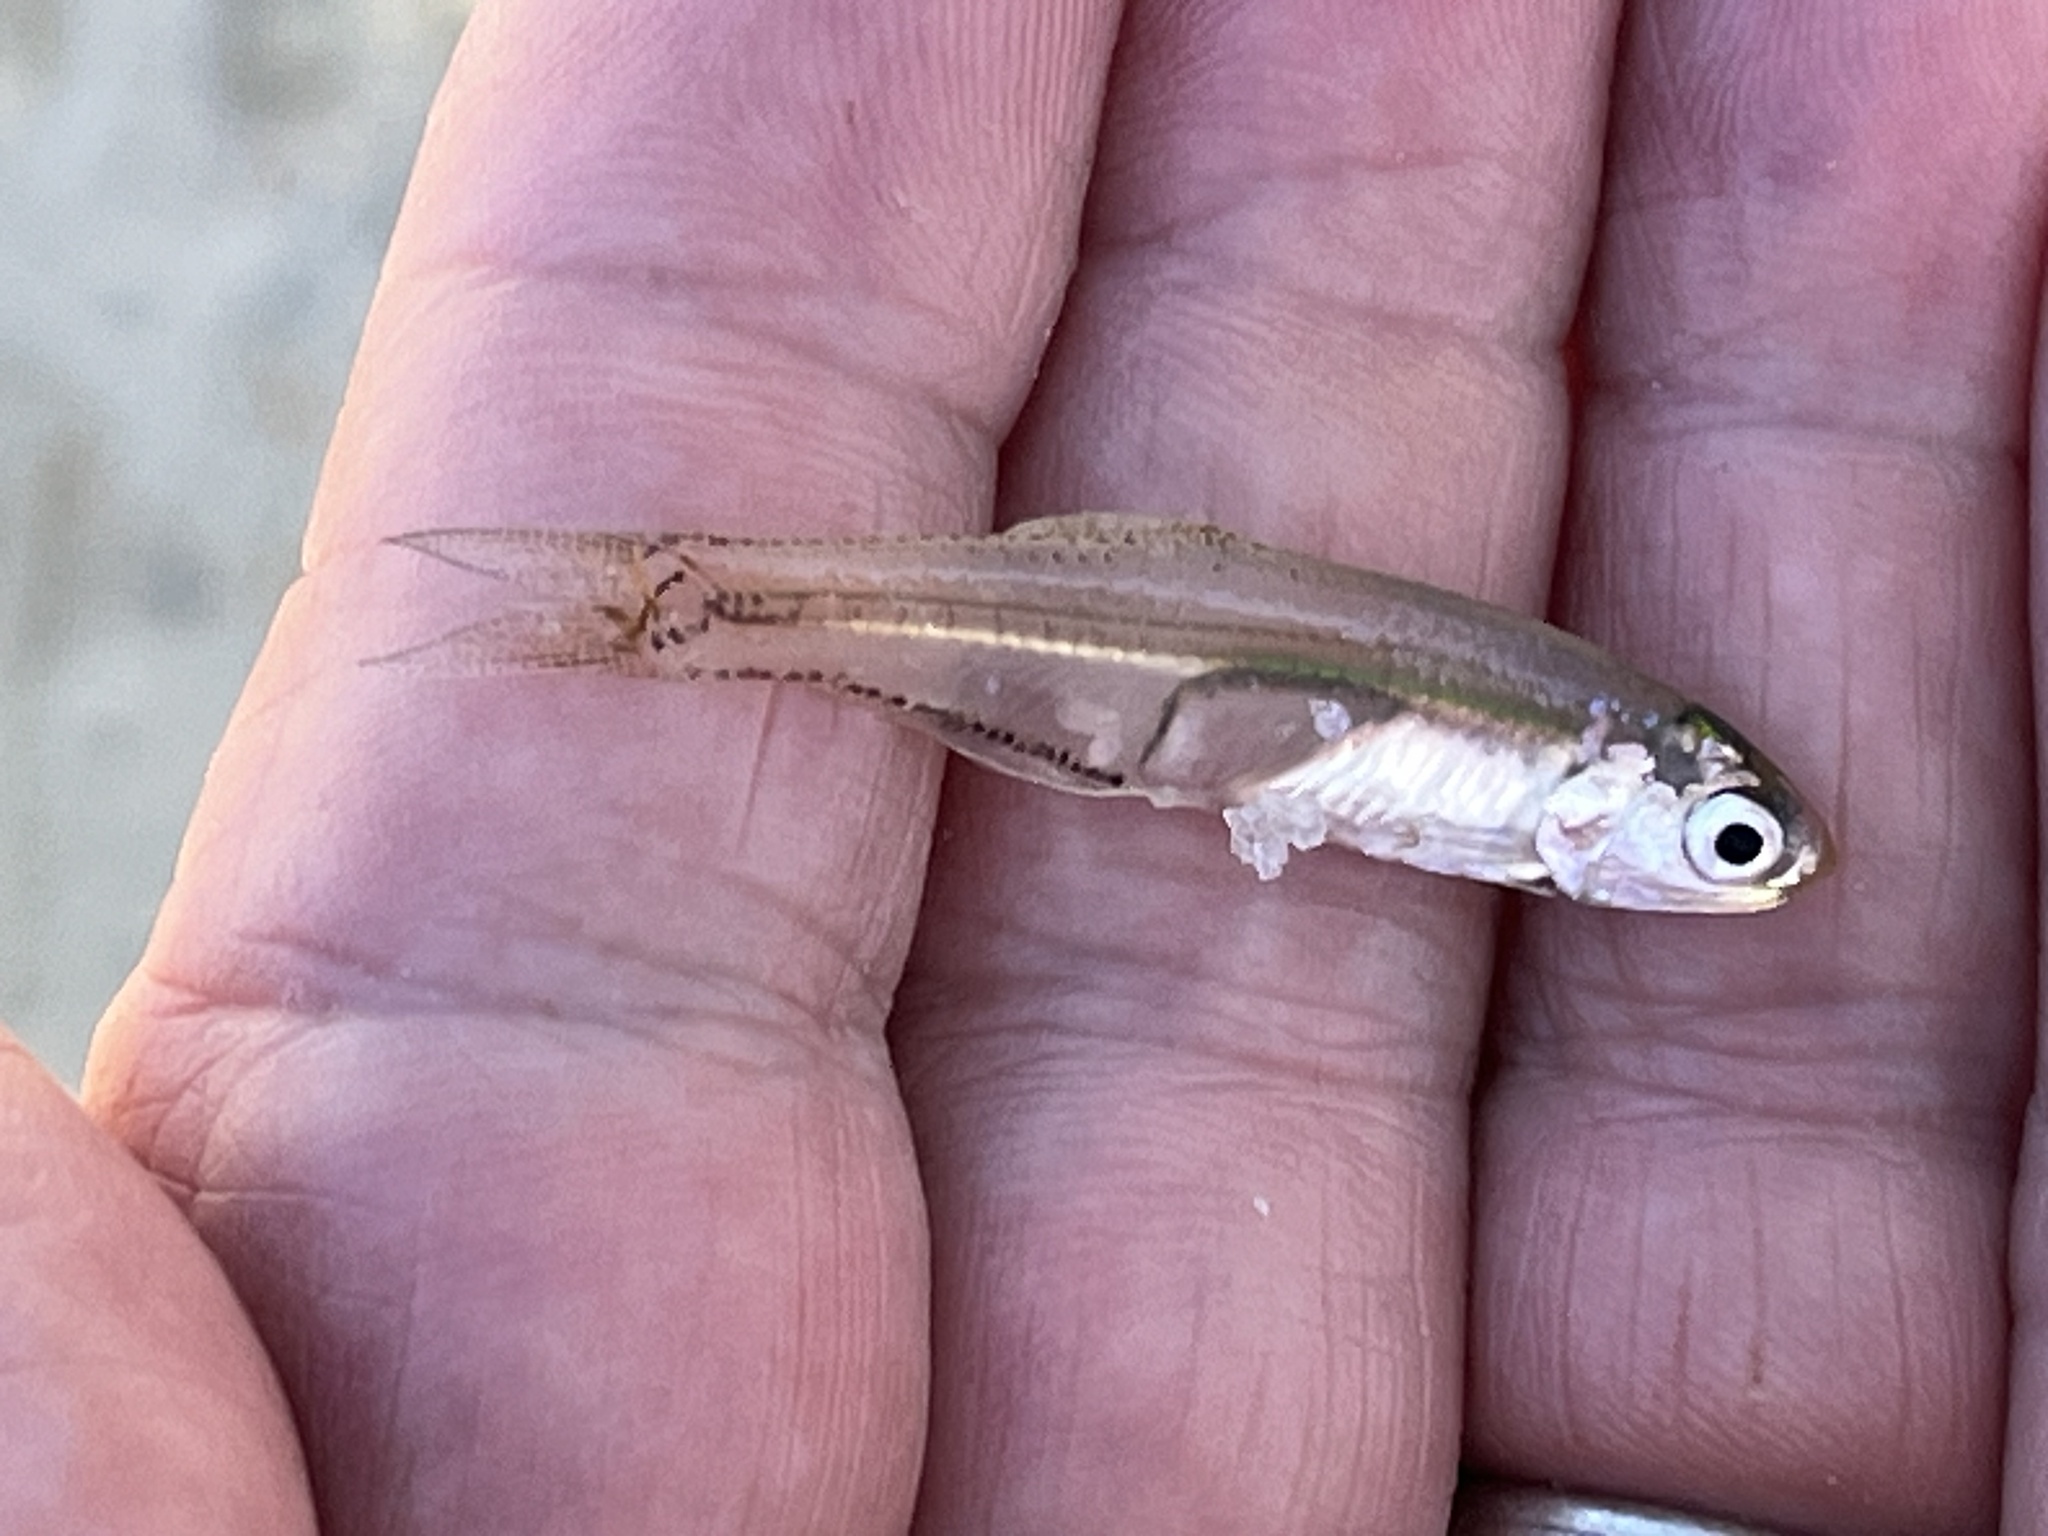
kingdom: Animalia
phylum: Chordata
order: Clupeiformes
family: Engraulidae
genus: Anchoa
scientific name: Anchoa mitchilli
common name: Bay anchovy
